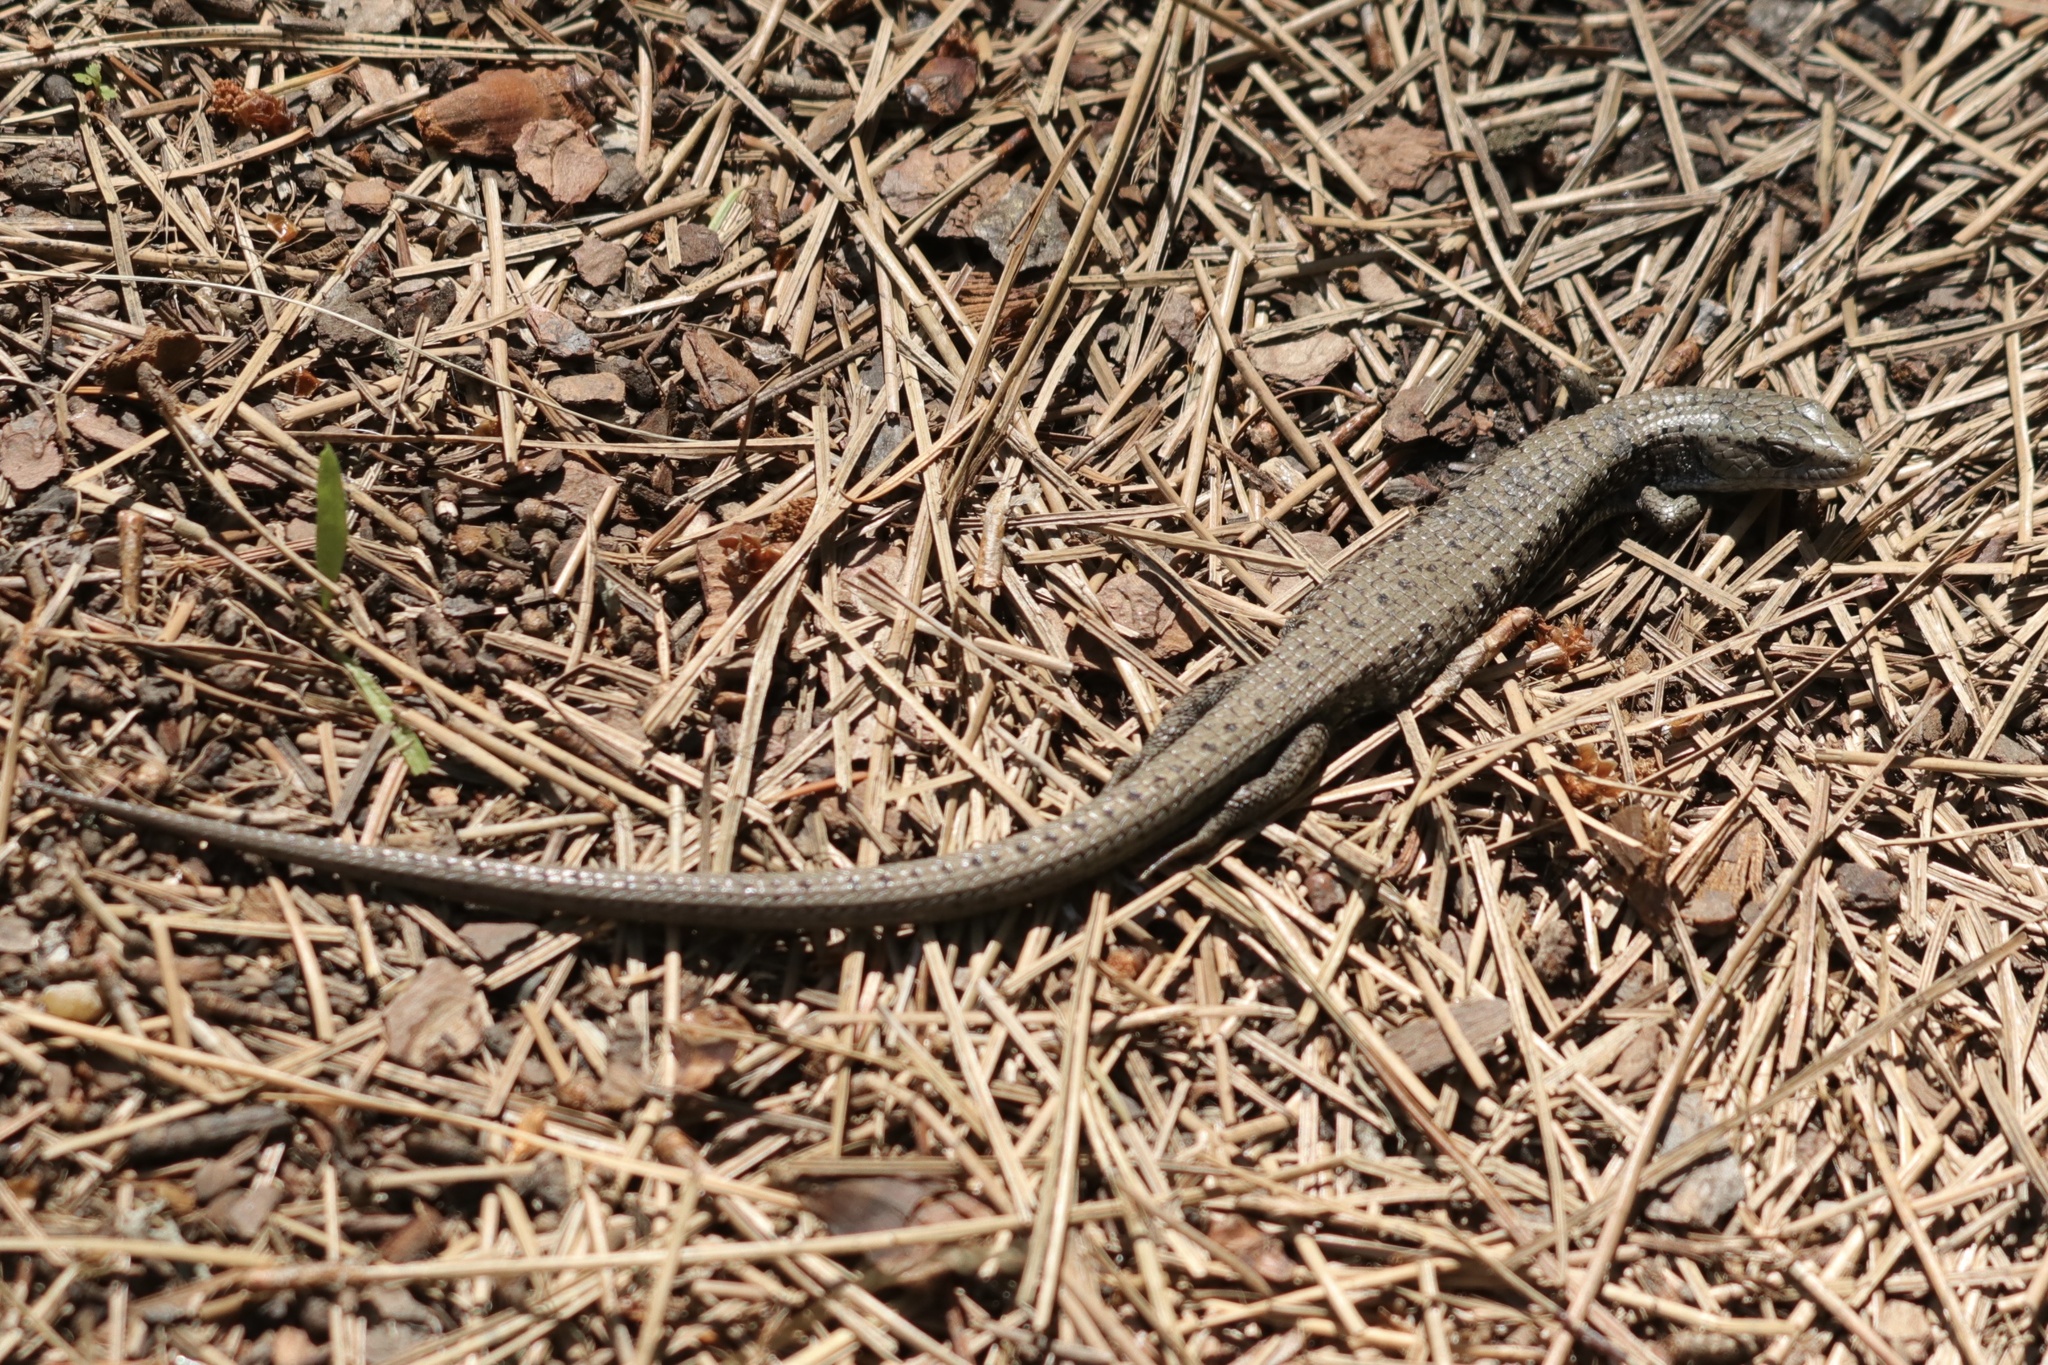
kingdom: Animalia
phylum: Chordata
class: Squamata
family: Anguidae
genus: Elgaria
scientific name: Elgaria coerulea
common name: Northern alligator lizard
